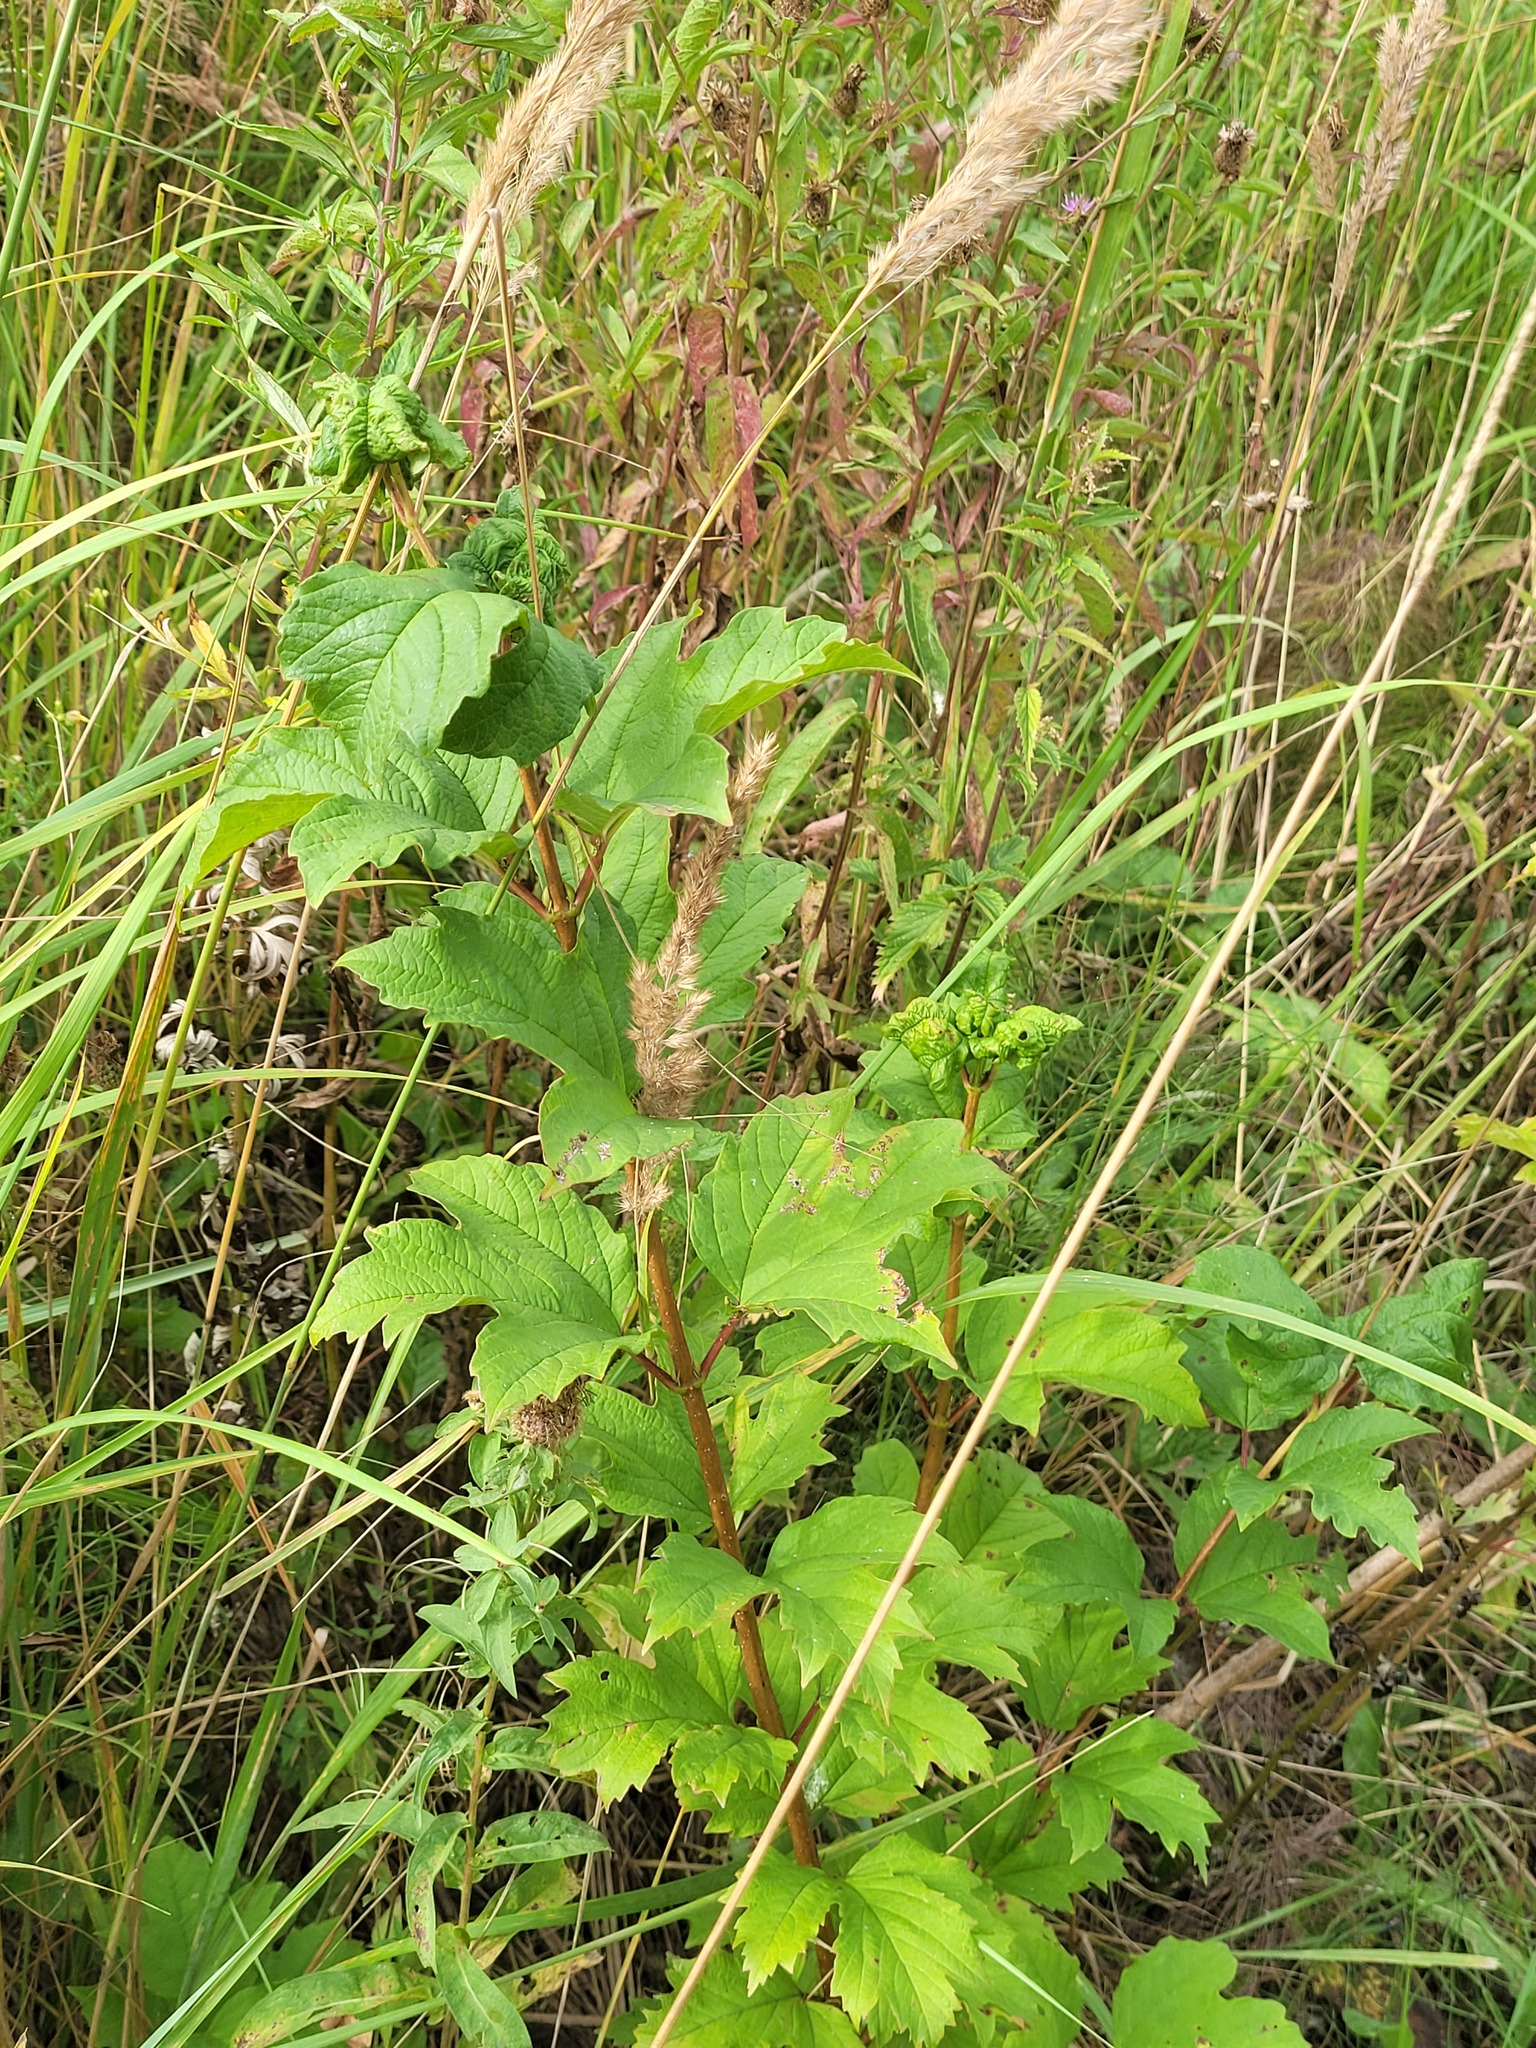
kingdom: Plantae
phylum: Tracheophyta
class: Magnoliopsida
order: Dipsacales
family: Viburnaceae
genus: Viburnum
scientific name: Viburnum opulus
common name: Guelder-rose
